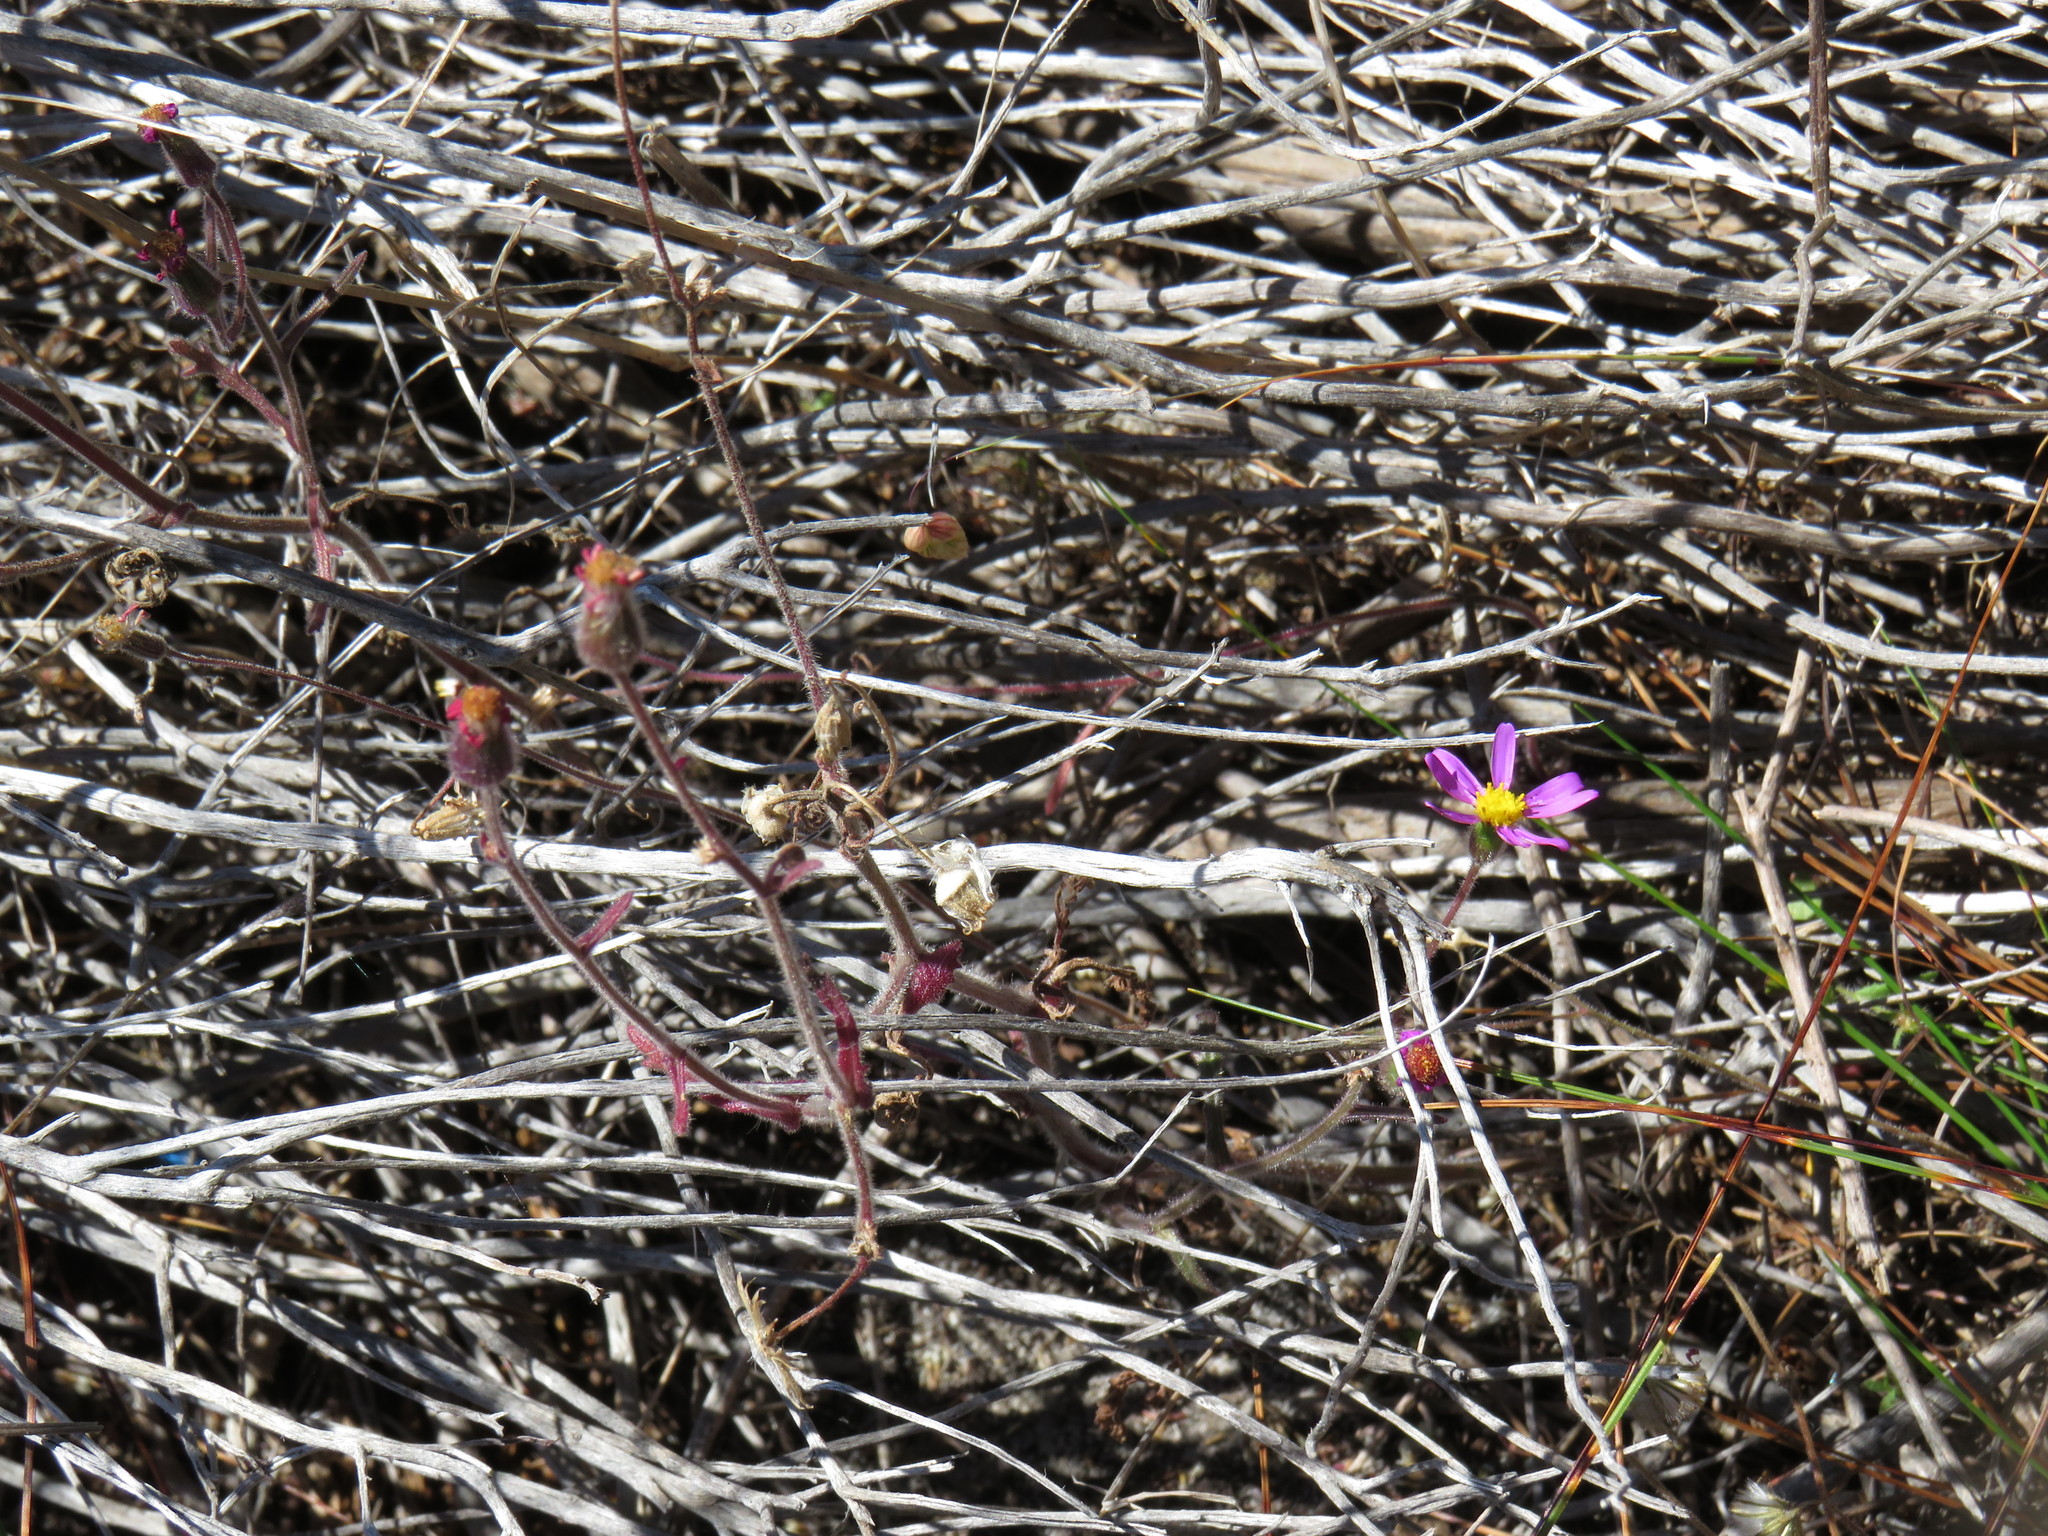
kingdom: Plantae
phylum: Tracheophyta
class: Magnoliopsida
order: Asterales
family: Asteraceae
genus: Senecio
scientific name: Senecio arenarius
